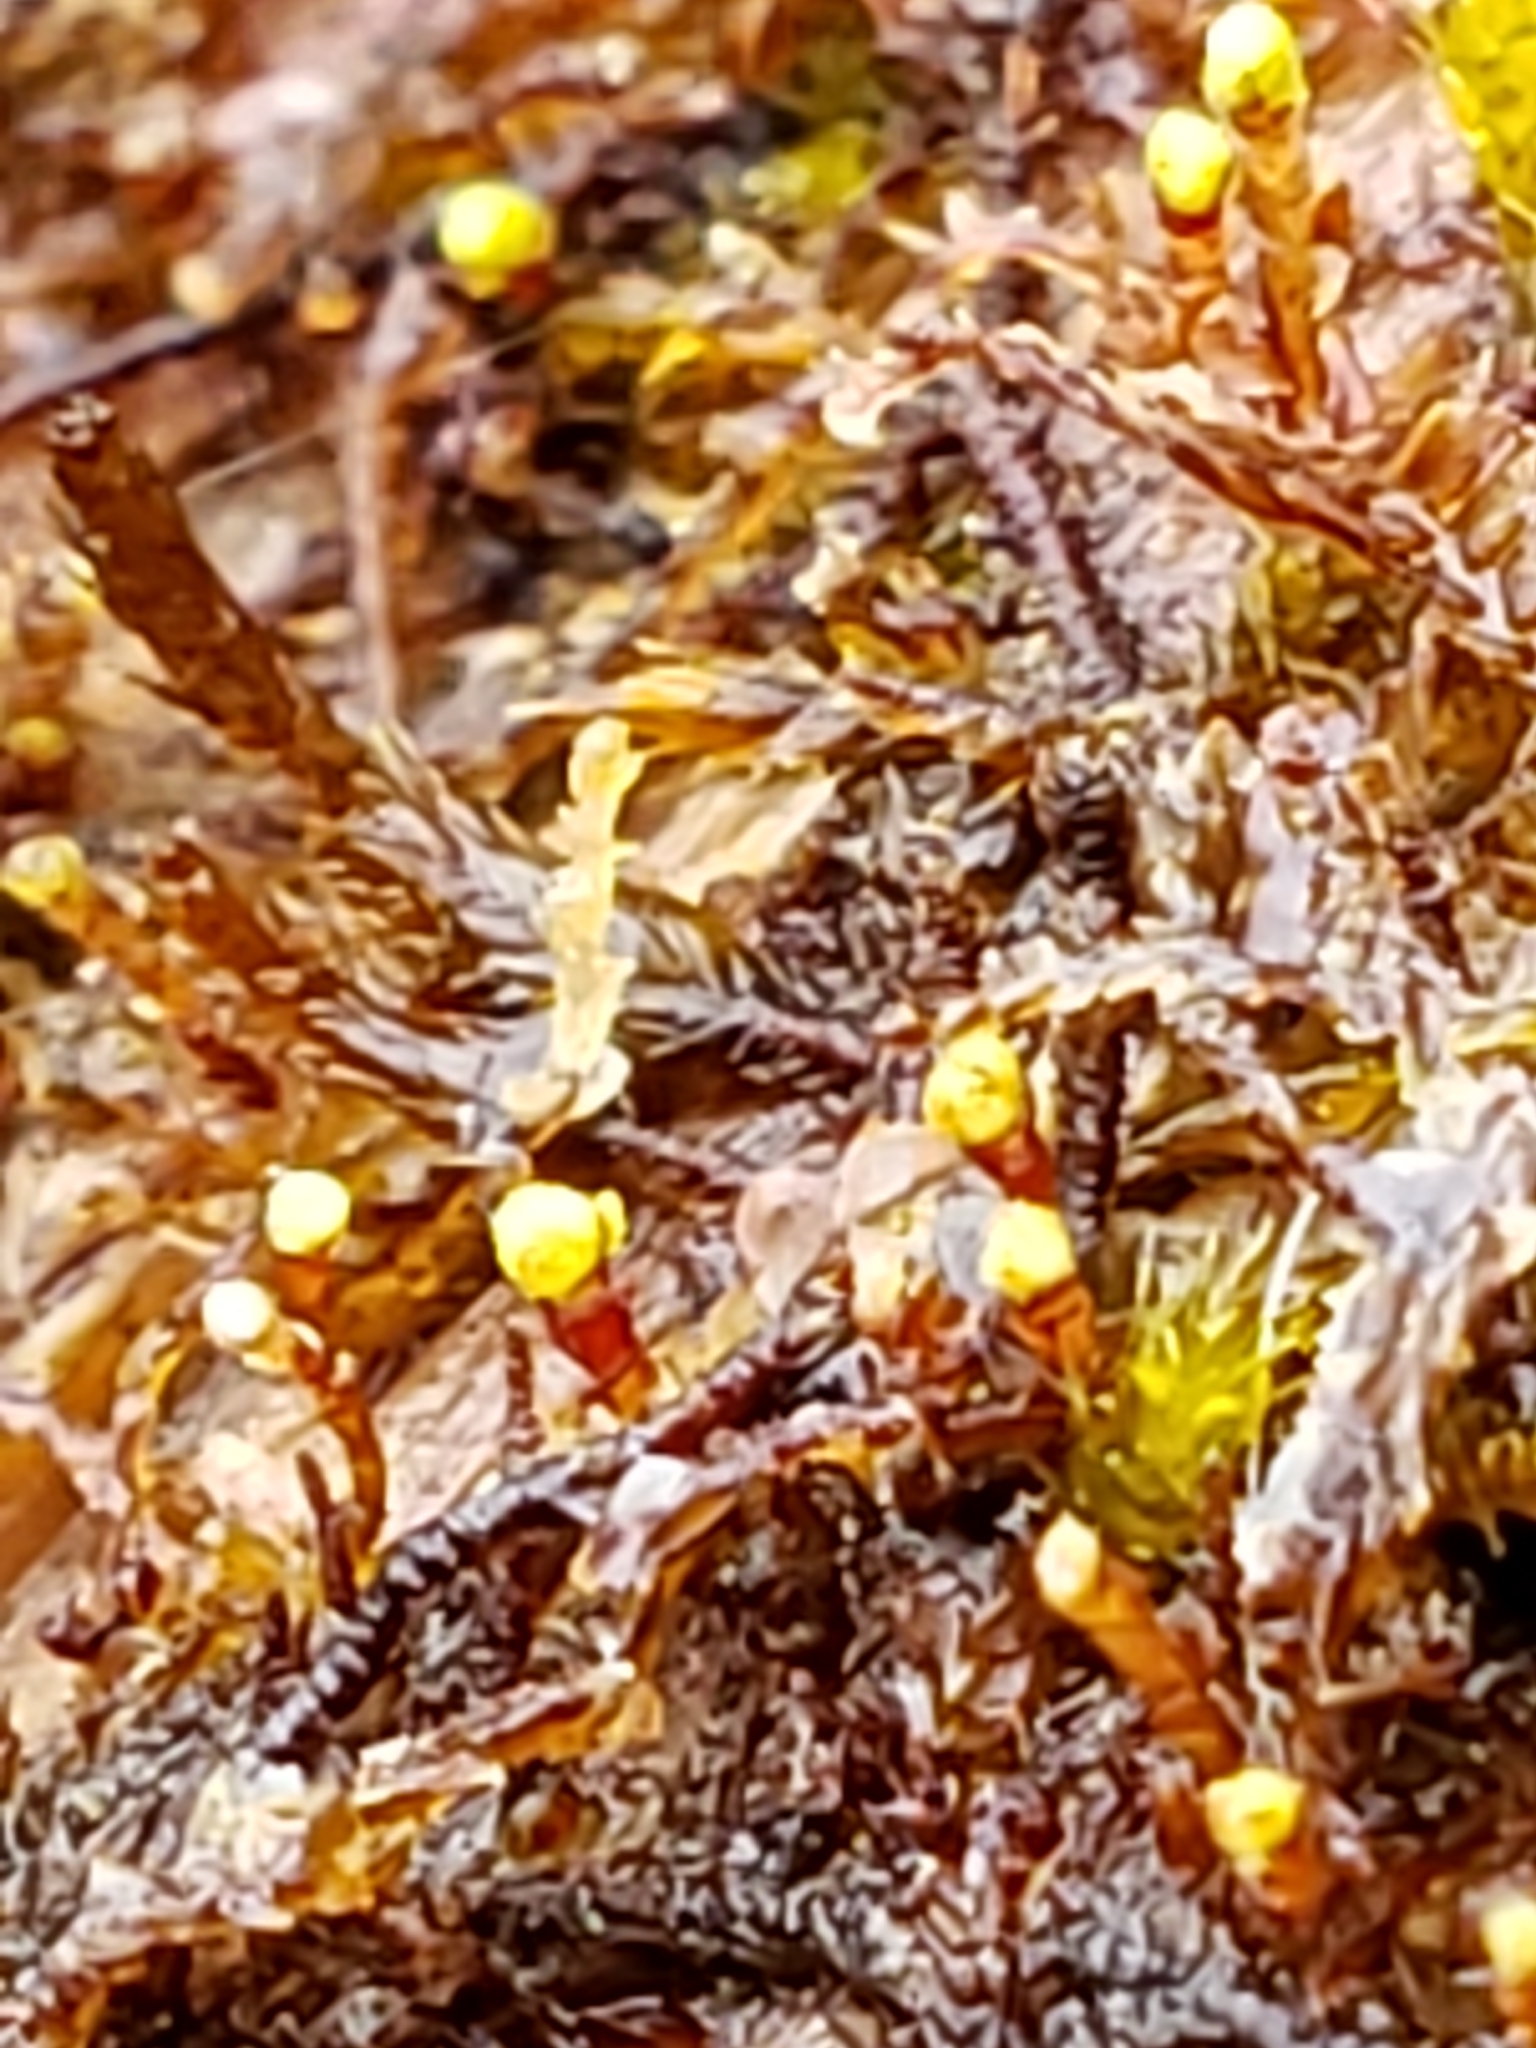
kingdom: Plantae
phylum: Marchantiophyta
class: Jungermanniopsida
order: Jungermanniales
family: Cephaloziaceae
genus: Nowellia
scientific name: Nowellia curvifolia
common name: Wood rustwort
